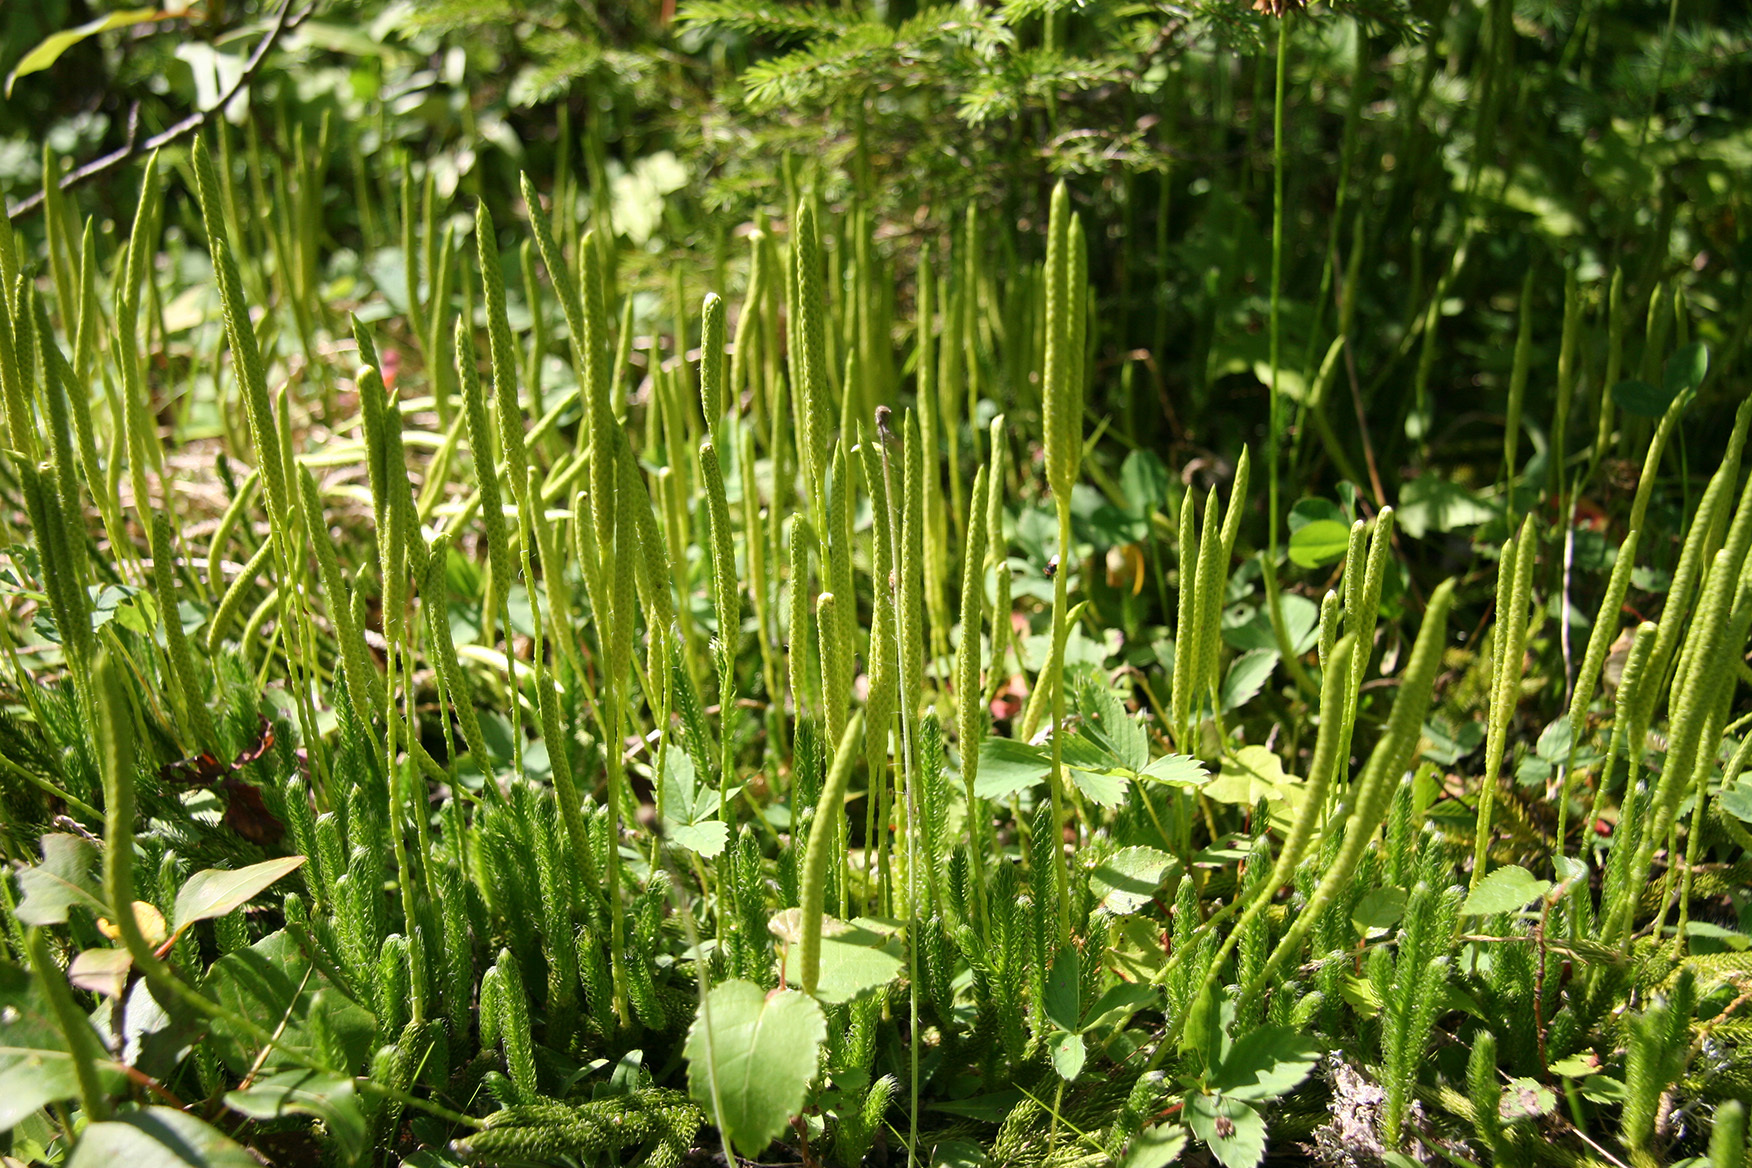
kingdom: Plantae
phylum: Tracheophyta
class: Lycopodiopsida
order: Lycopodiales
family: Lycopodiaceae
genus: Lycopodium
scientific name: Lycopodium lagopus
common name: One-cone clubmoss
